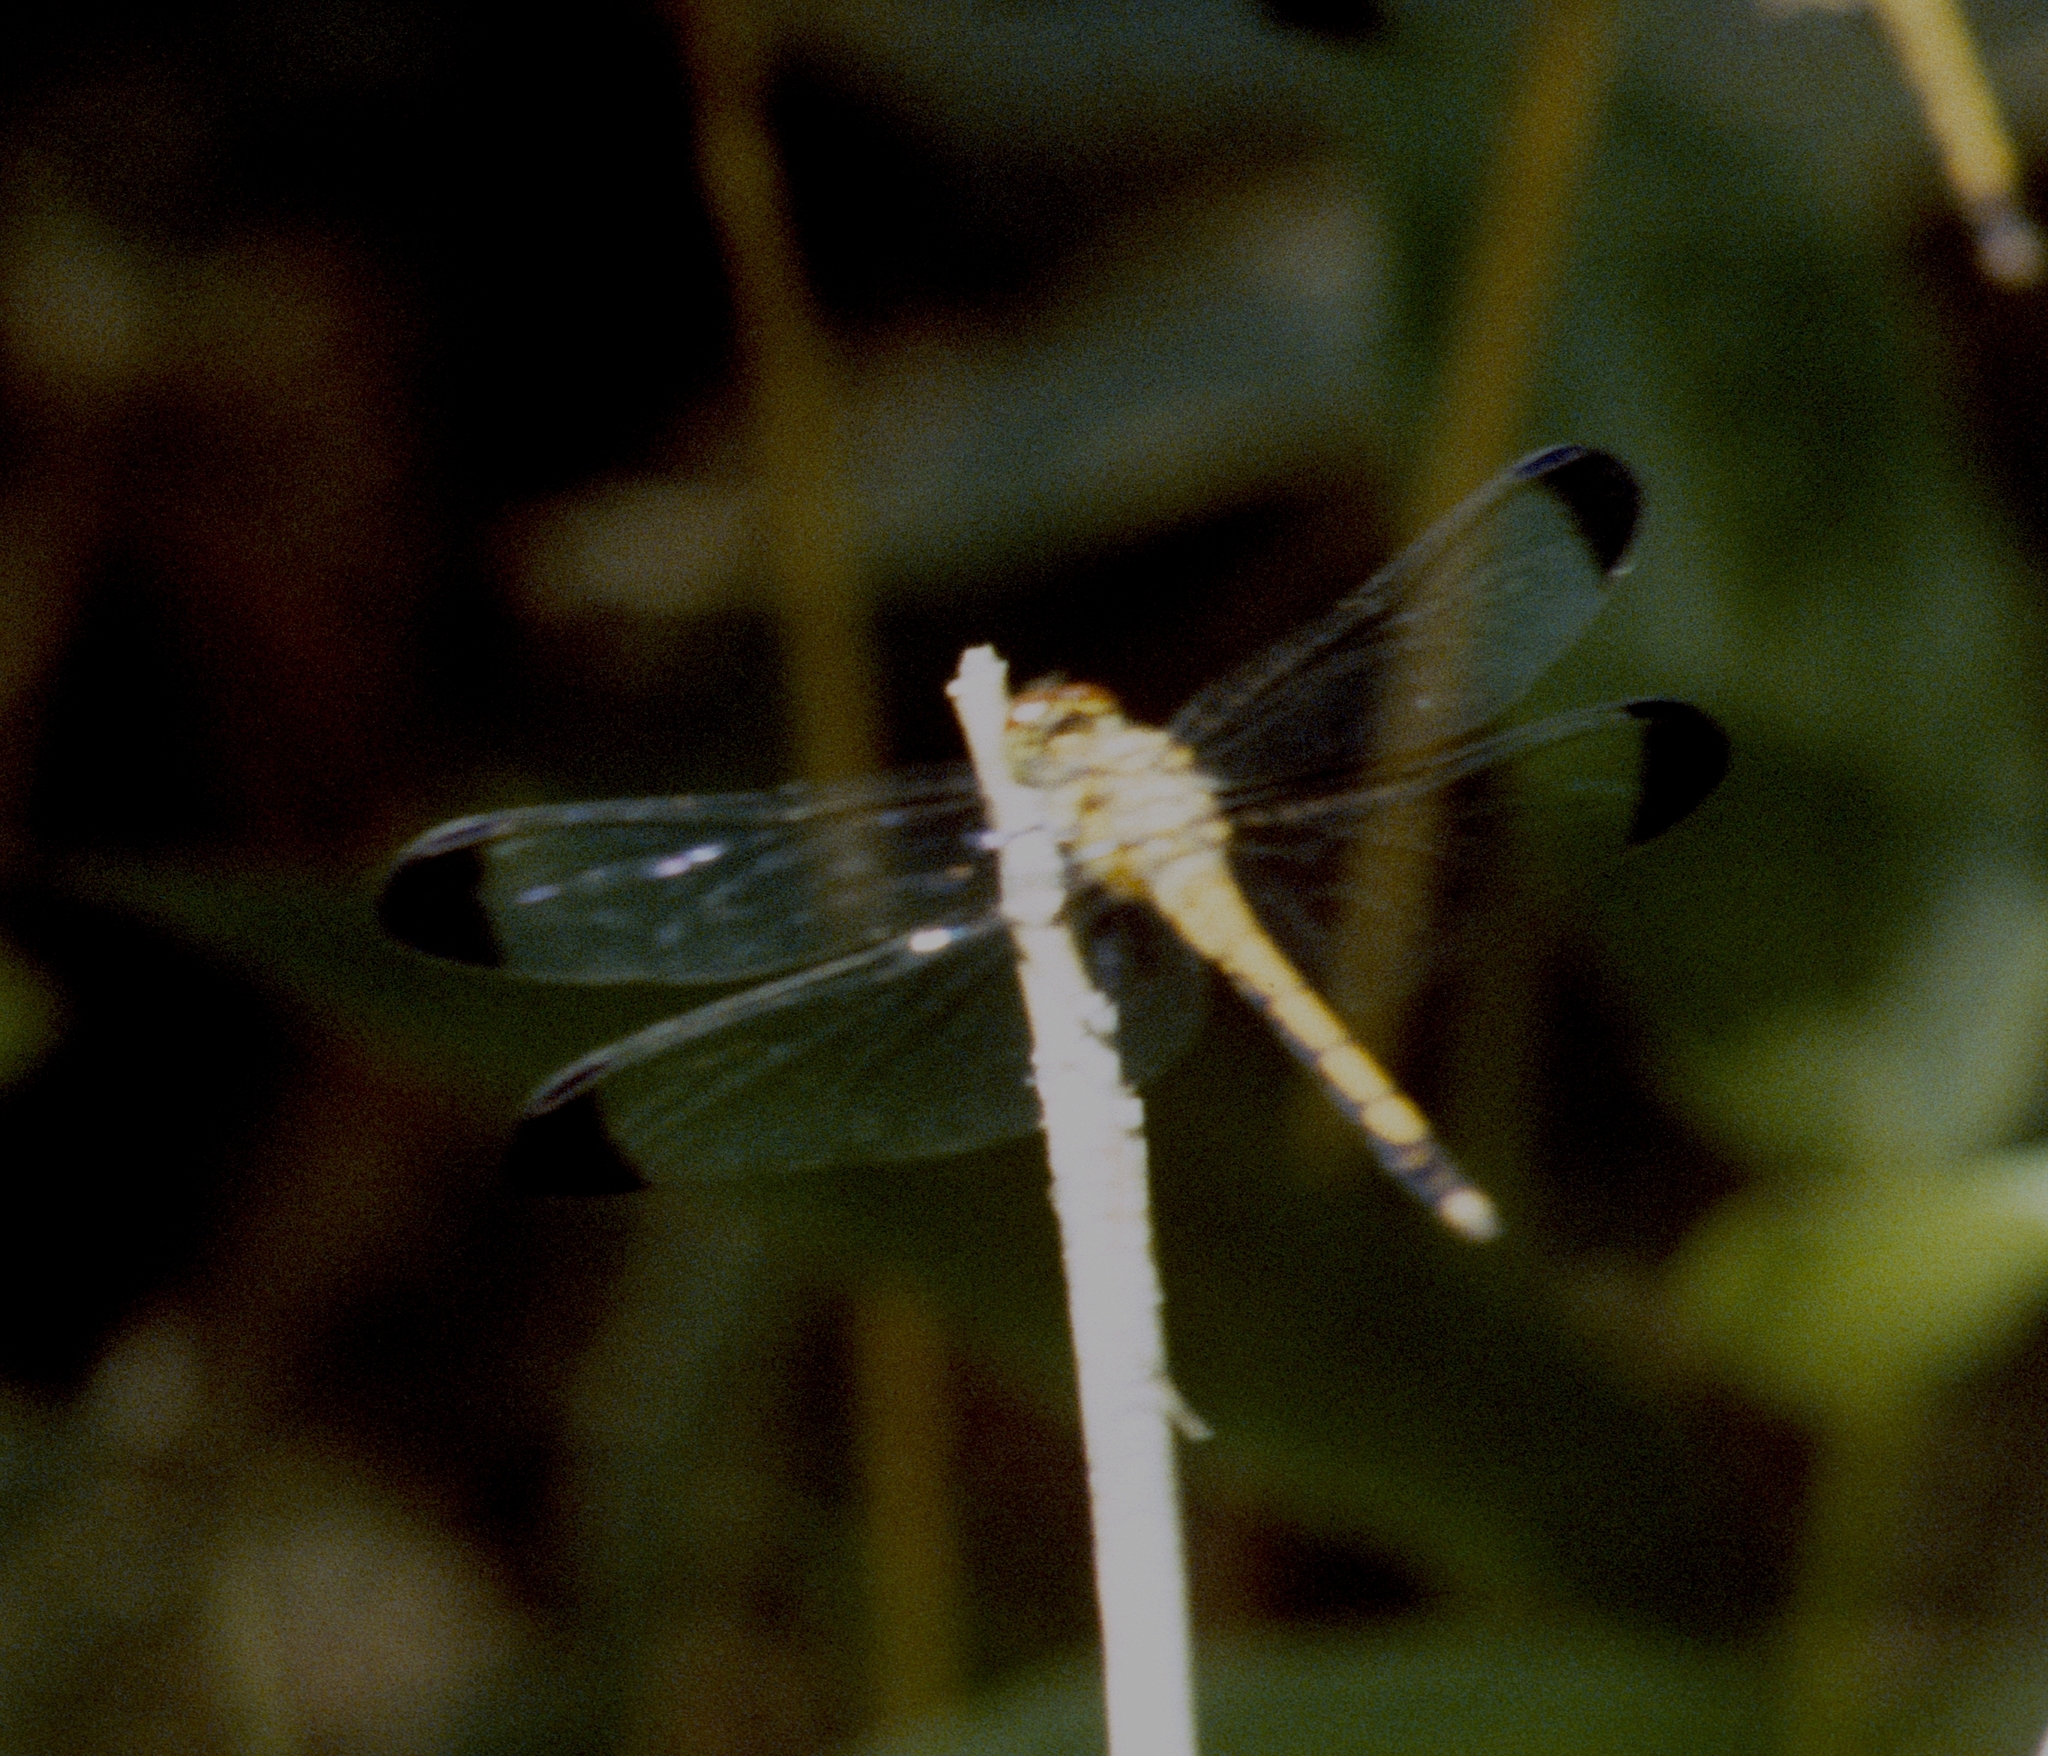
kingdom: Animalia
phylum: Arthropoda
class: Insecta
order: Odonata
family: Libellulidae
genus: Sympetrum
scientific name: Sympetrum infuscatum
